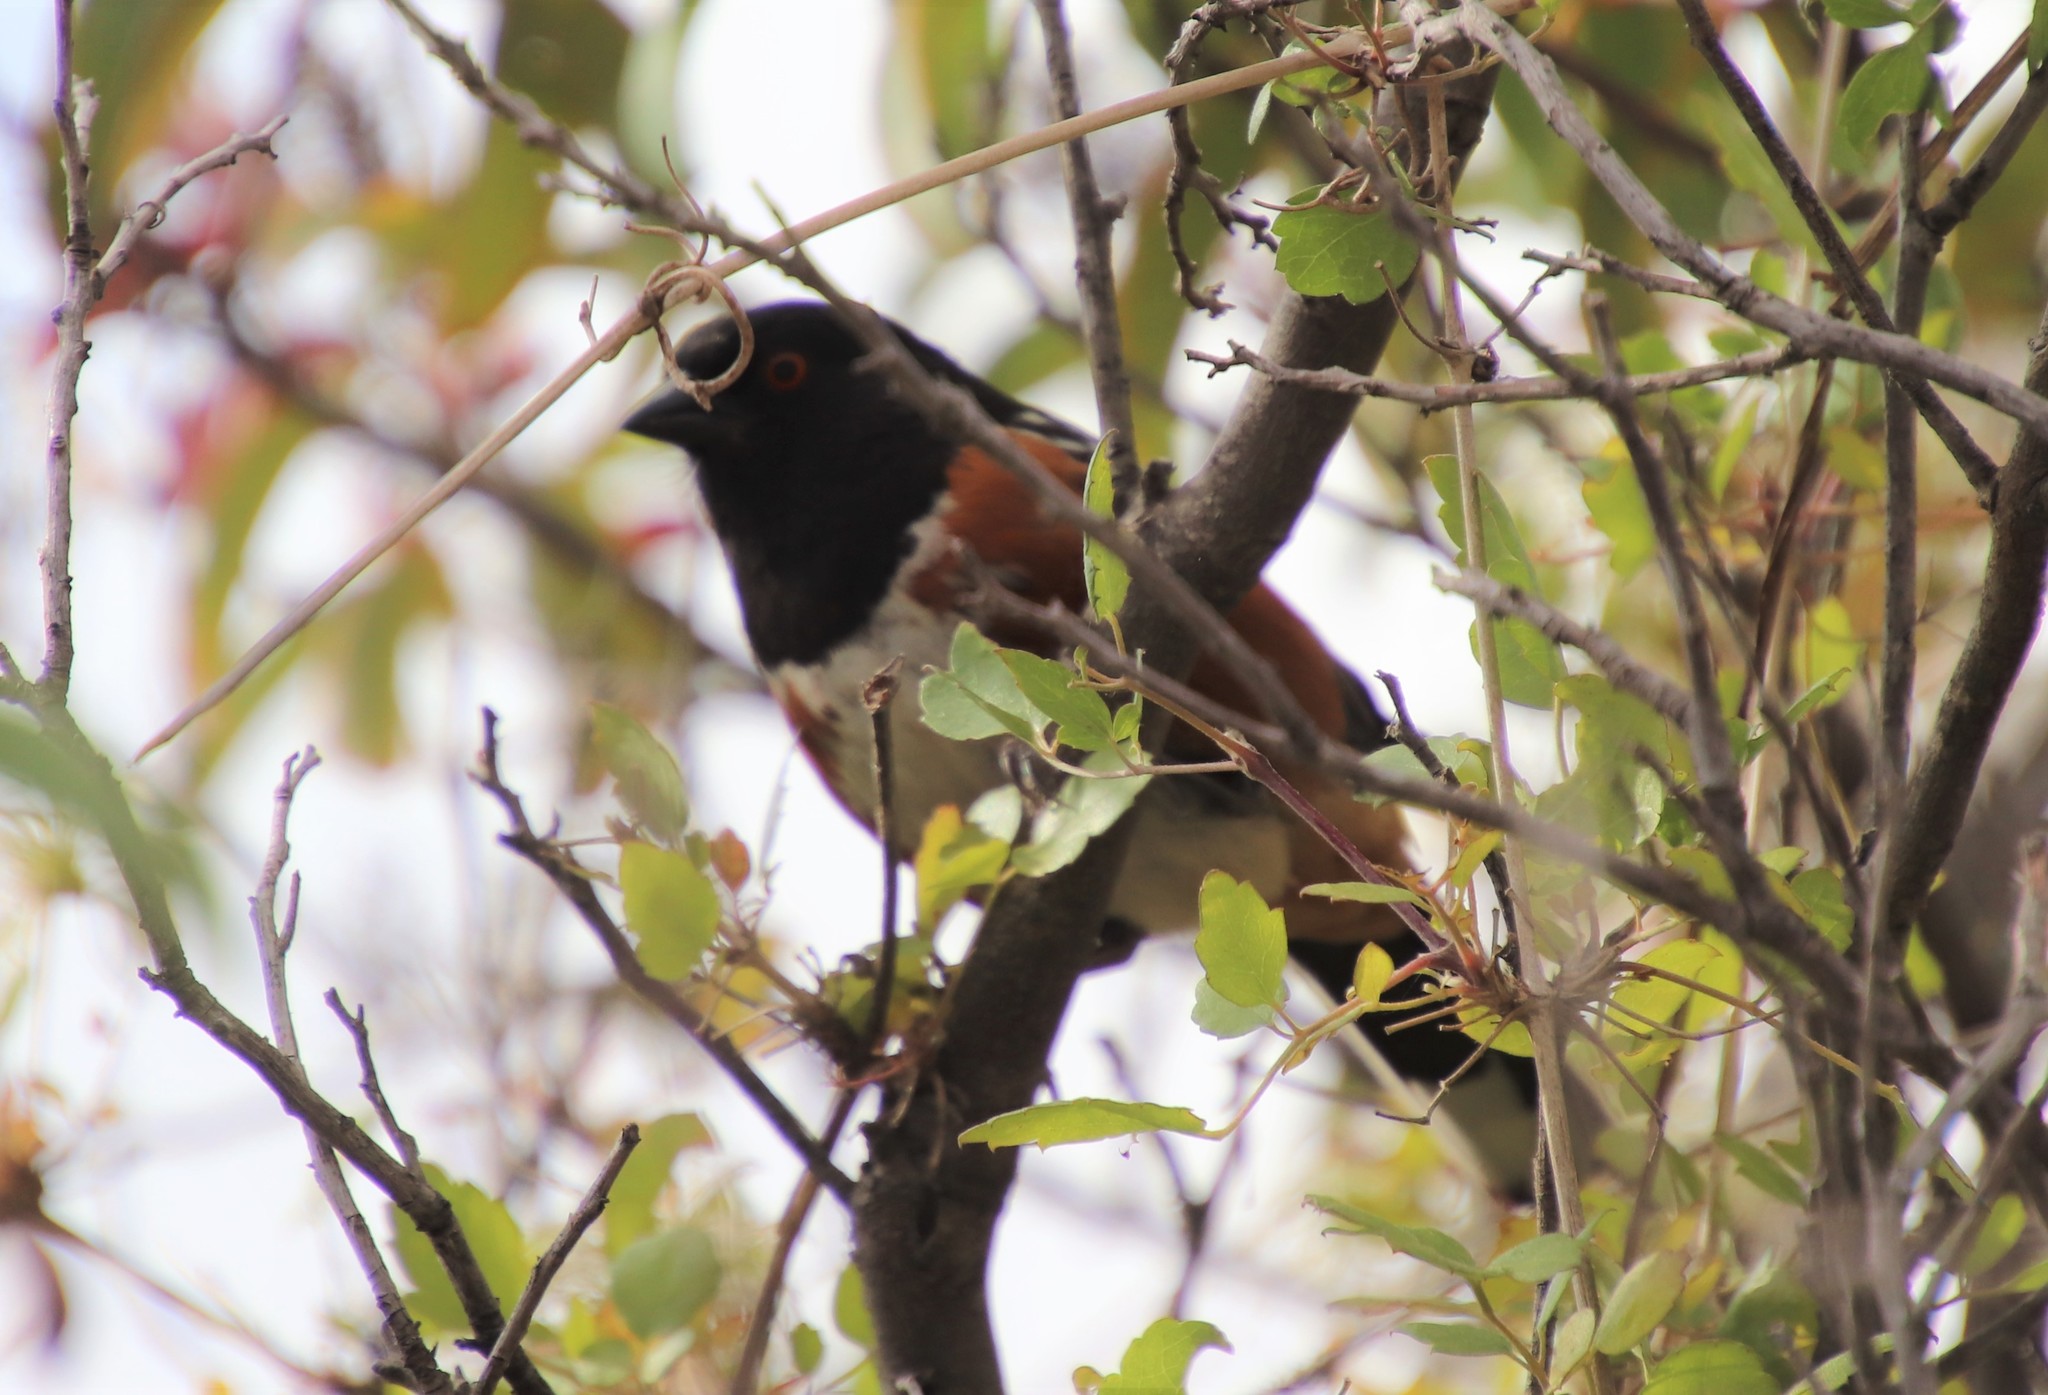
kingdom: Animalia
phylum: Chordata
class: Aves
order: Passeriformes
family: Passerellidae
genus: Pipilo
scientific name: Pipilo maculatus
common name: Spotted towhee
